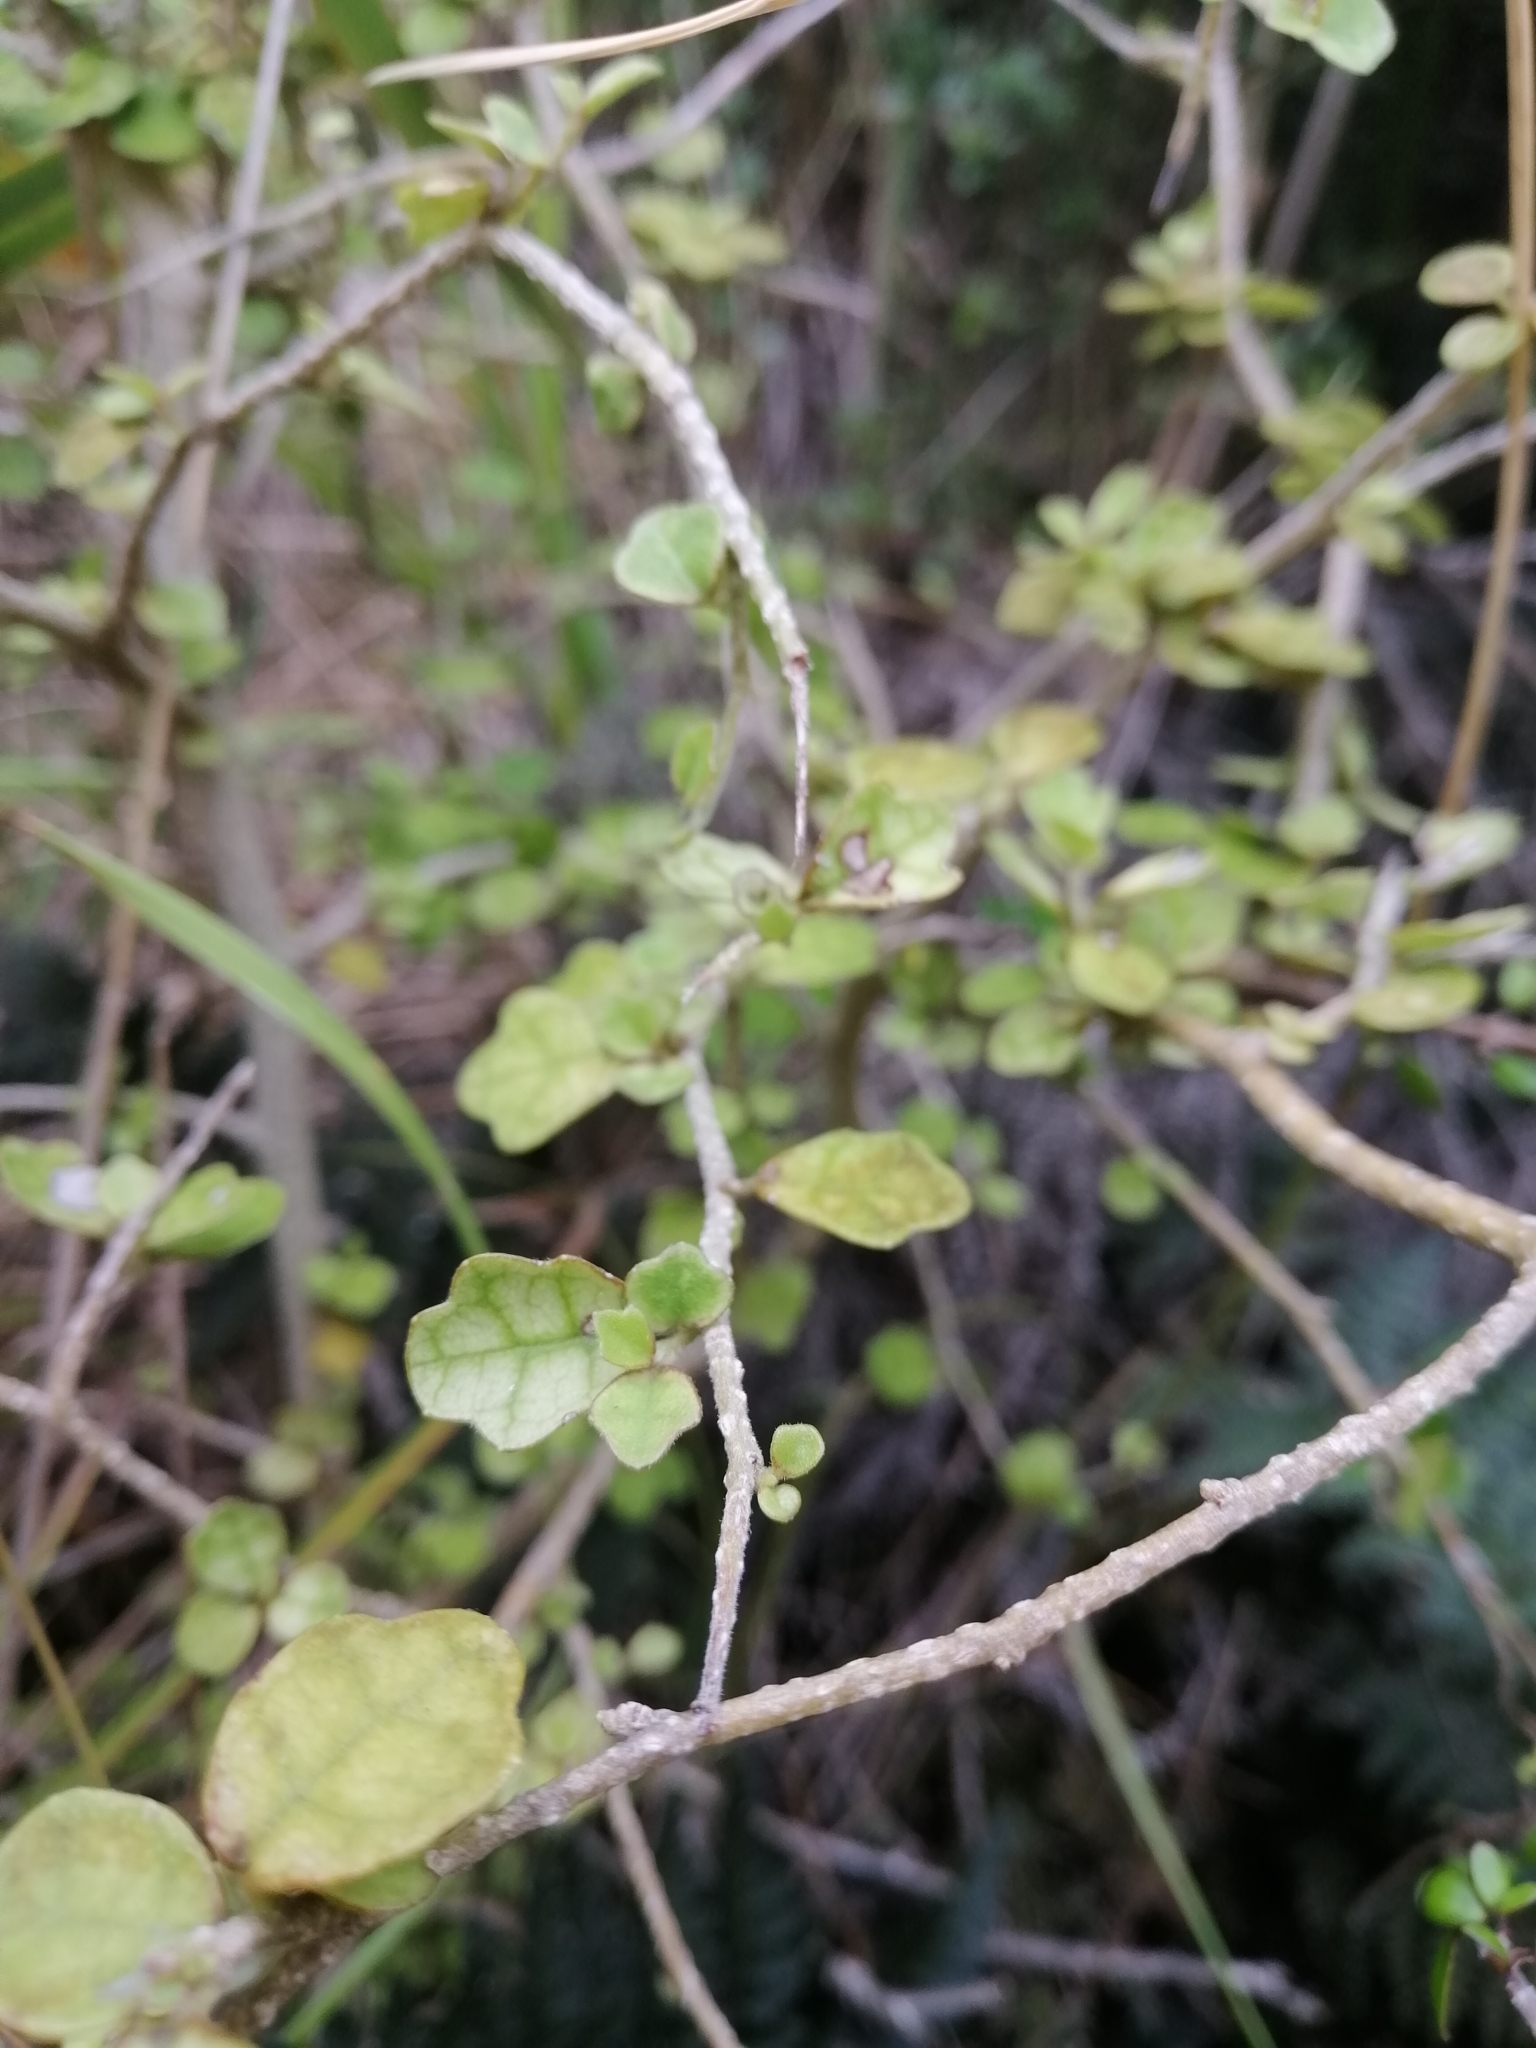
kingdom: Plantae
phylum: Tracheophyta
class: Magnoliopsida
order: Apiales
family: Pennantiaceae
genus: Pennantia
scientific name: Pennantia corymbosa
